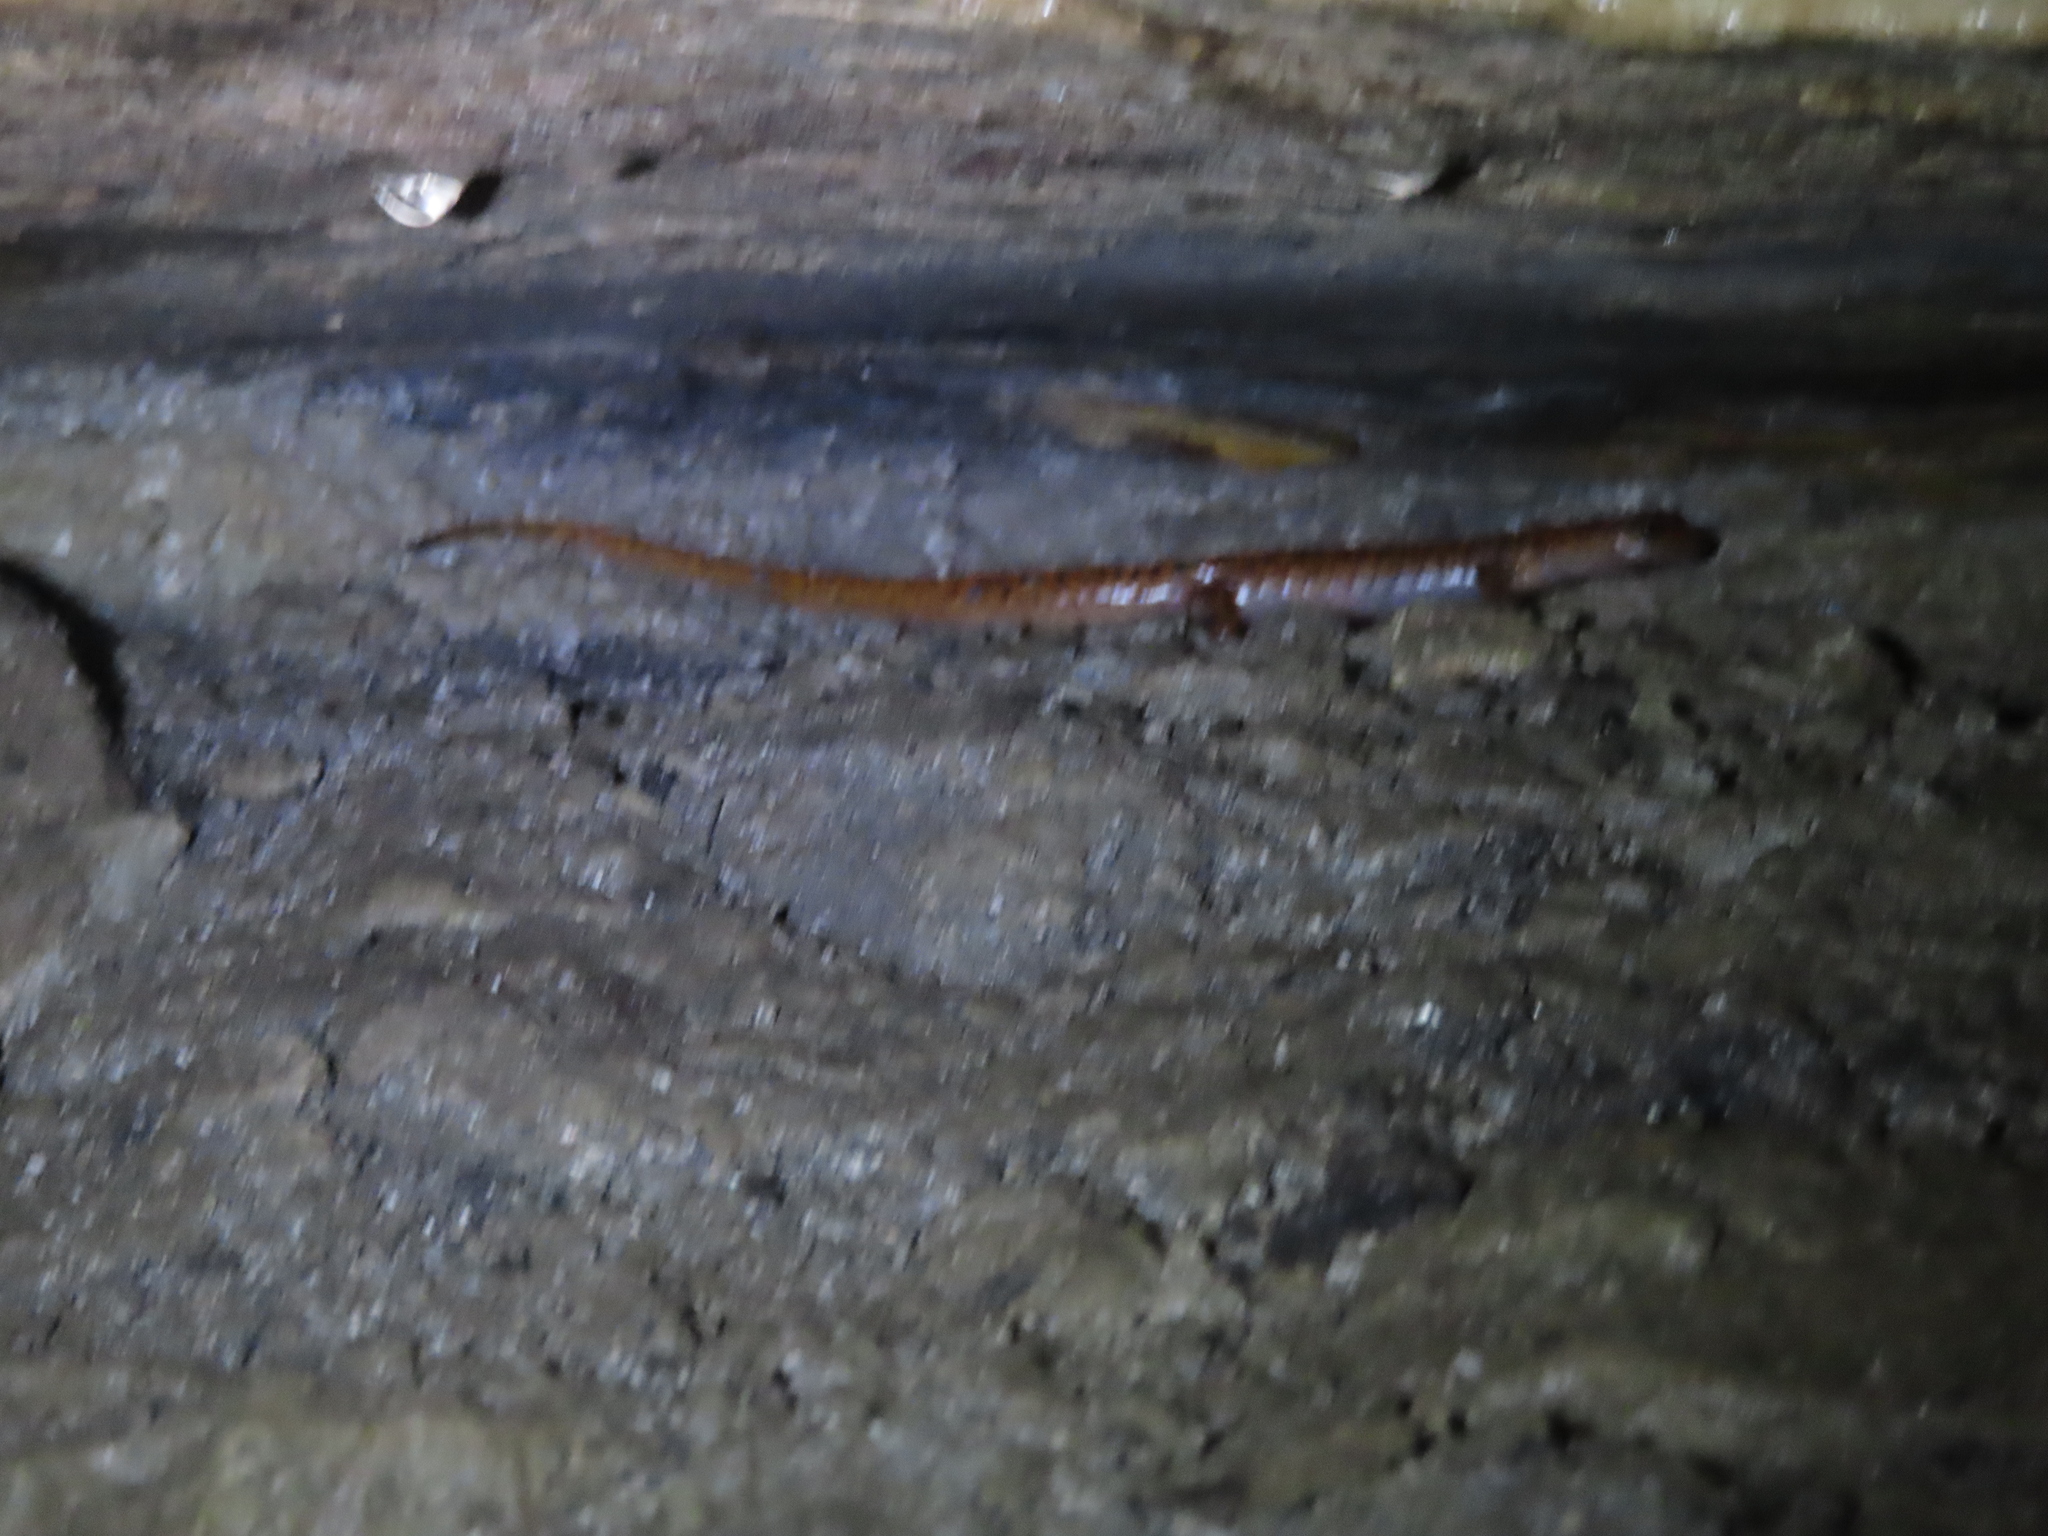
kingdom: Animalia
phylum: Chordata
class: Amphibia
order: Caudata
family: Plethodontidae
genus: Eurycea
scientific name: Eurycea lucifuga
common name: Cave salamander
